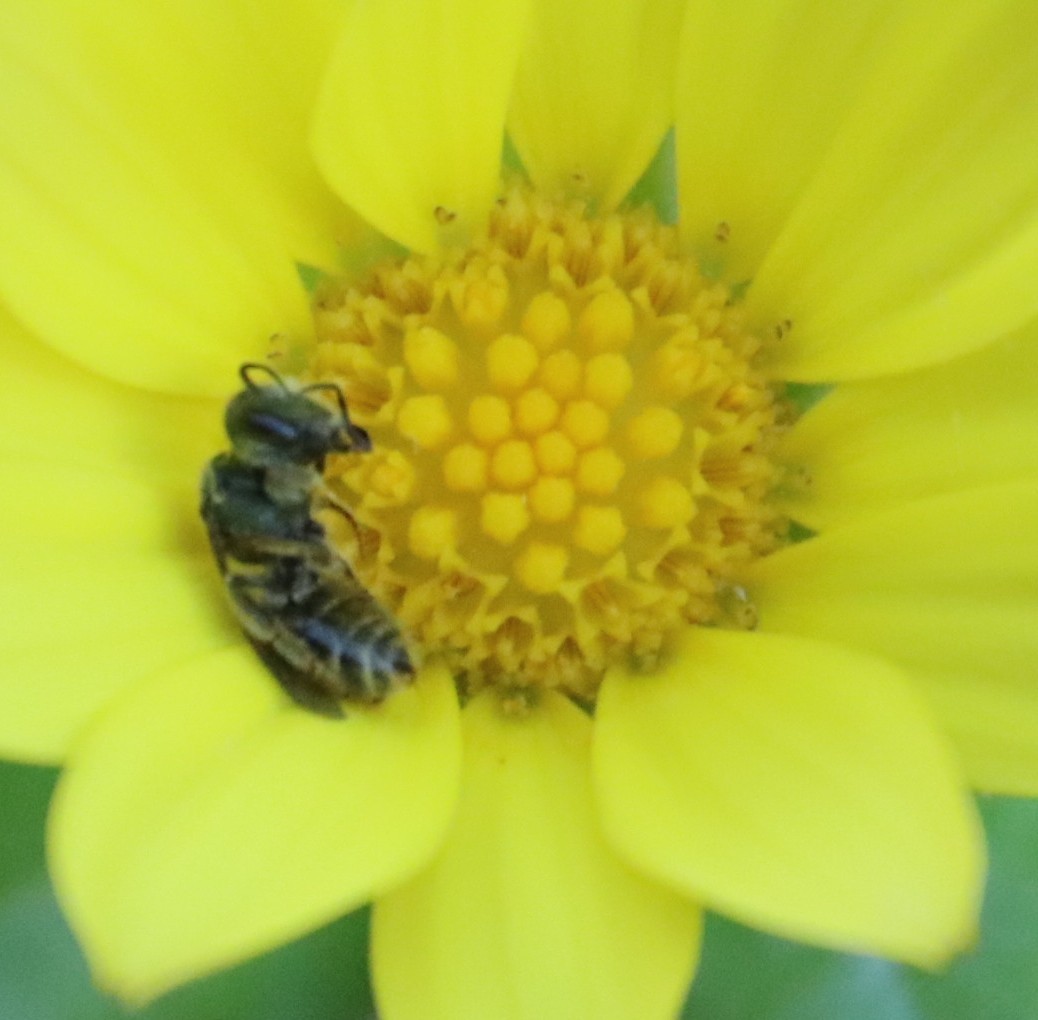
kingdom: Plantae
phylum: Tracheophyta
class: Magnoliopsida
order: Asterales
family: Asteraceae
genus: Osteospermum
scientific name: Osteospermum ilicifolium
